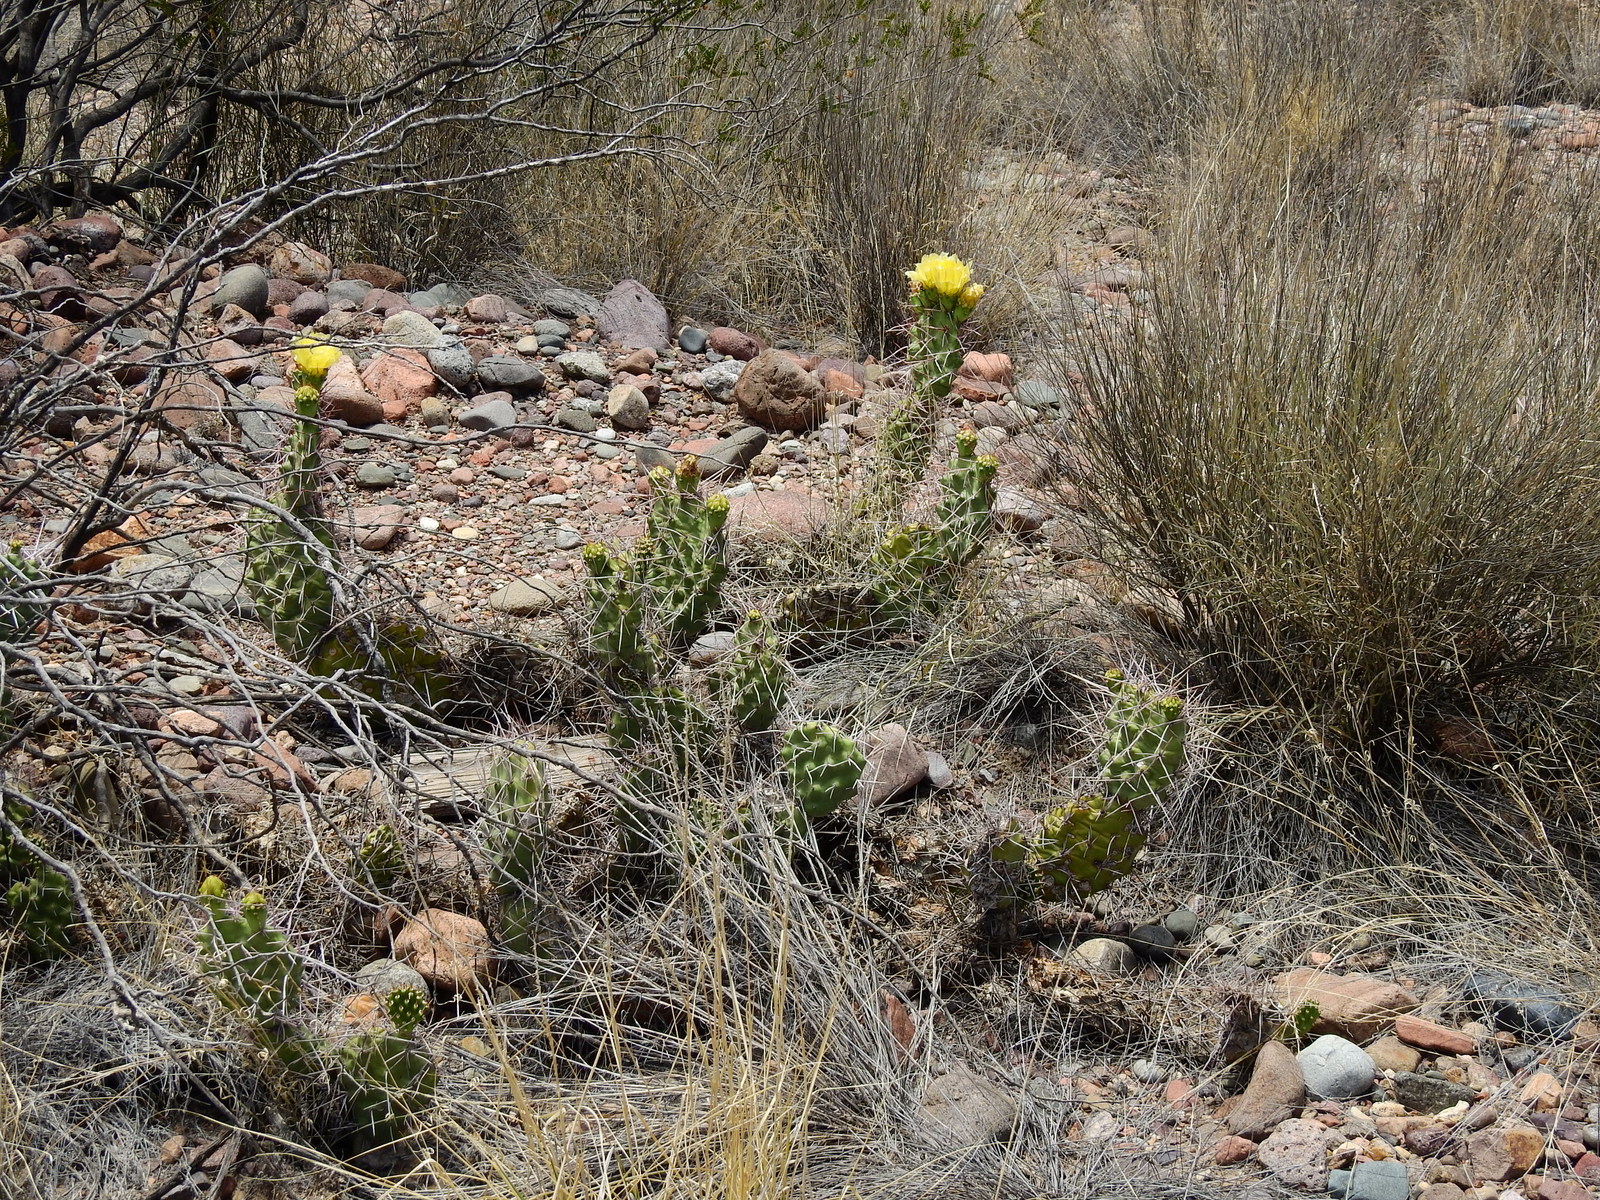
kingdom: Plantae
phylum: Tracheophyta
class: Magnoliopsida
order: Caryophyllales
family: Cactaceae
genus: Opuntia
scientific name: Opuntia sulphurea
